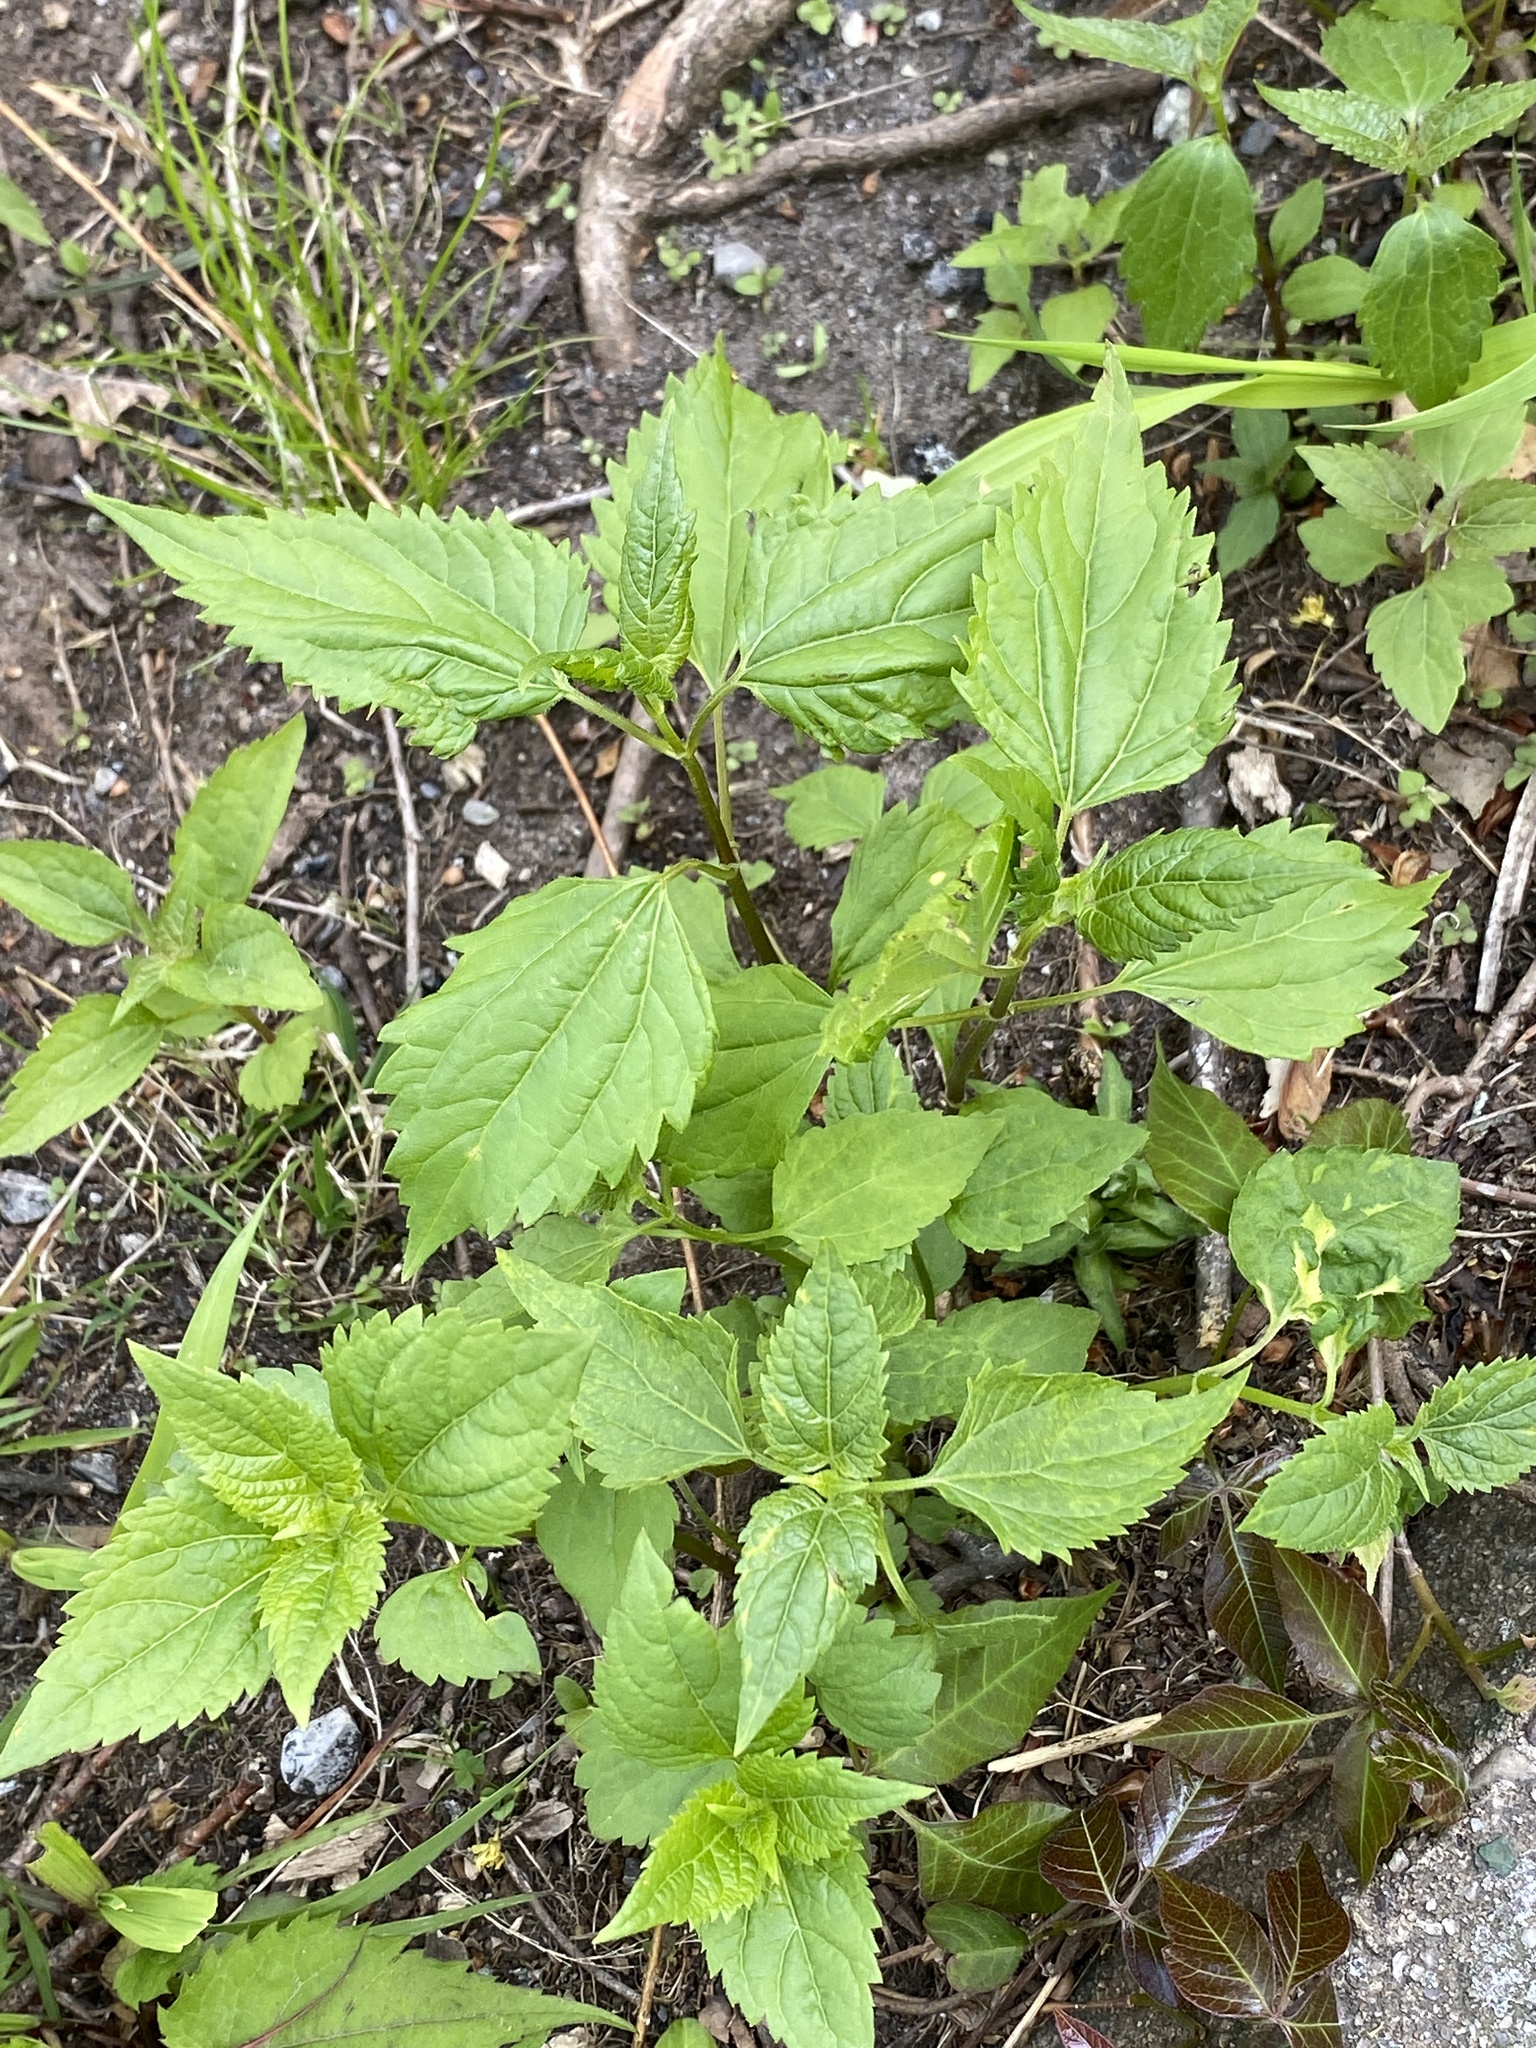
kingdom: Plantae
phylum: Tracheophyta
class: Magnoliopsida
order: Asterales
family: Asteraceae
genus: Ageratina
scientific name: Ageratina altissima
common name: White snakeroot
